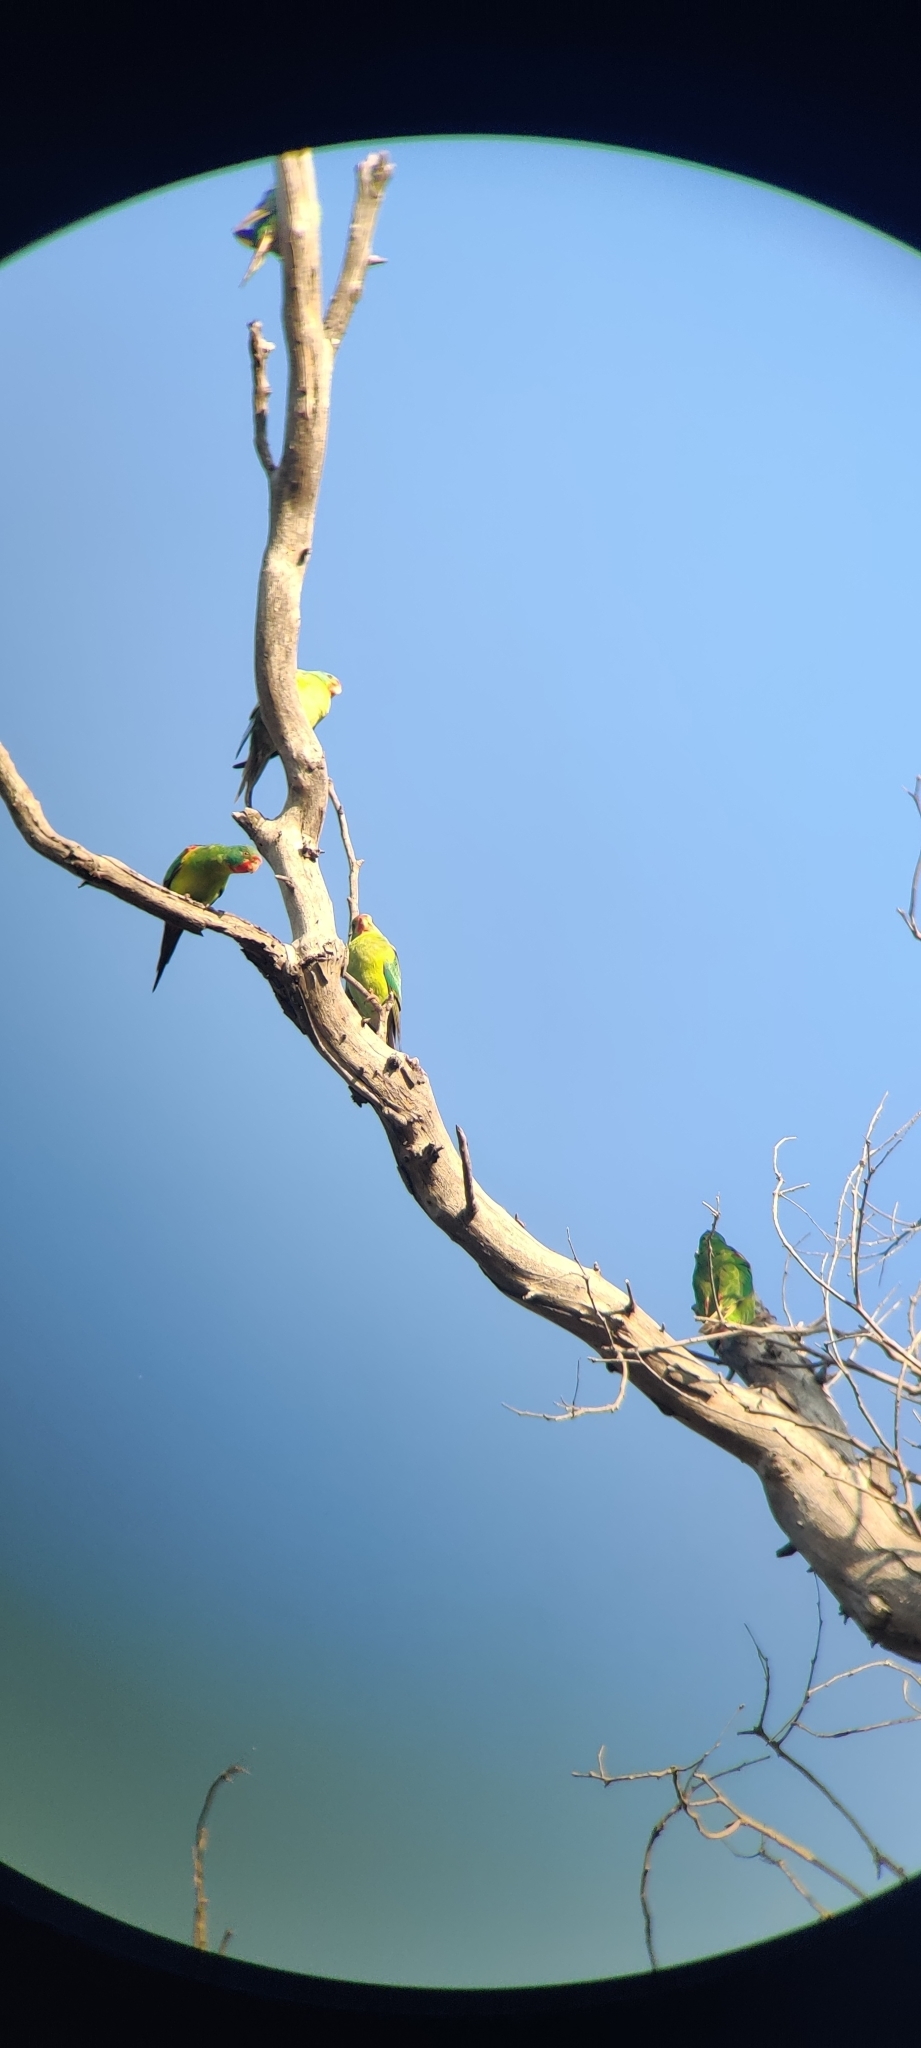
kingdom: Animalia
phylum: Chordata
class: Aves
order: Psittaciformes
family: Psittacidae
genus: Lathamus
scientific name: Lathamus discolor
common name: Swift parrot
